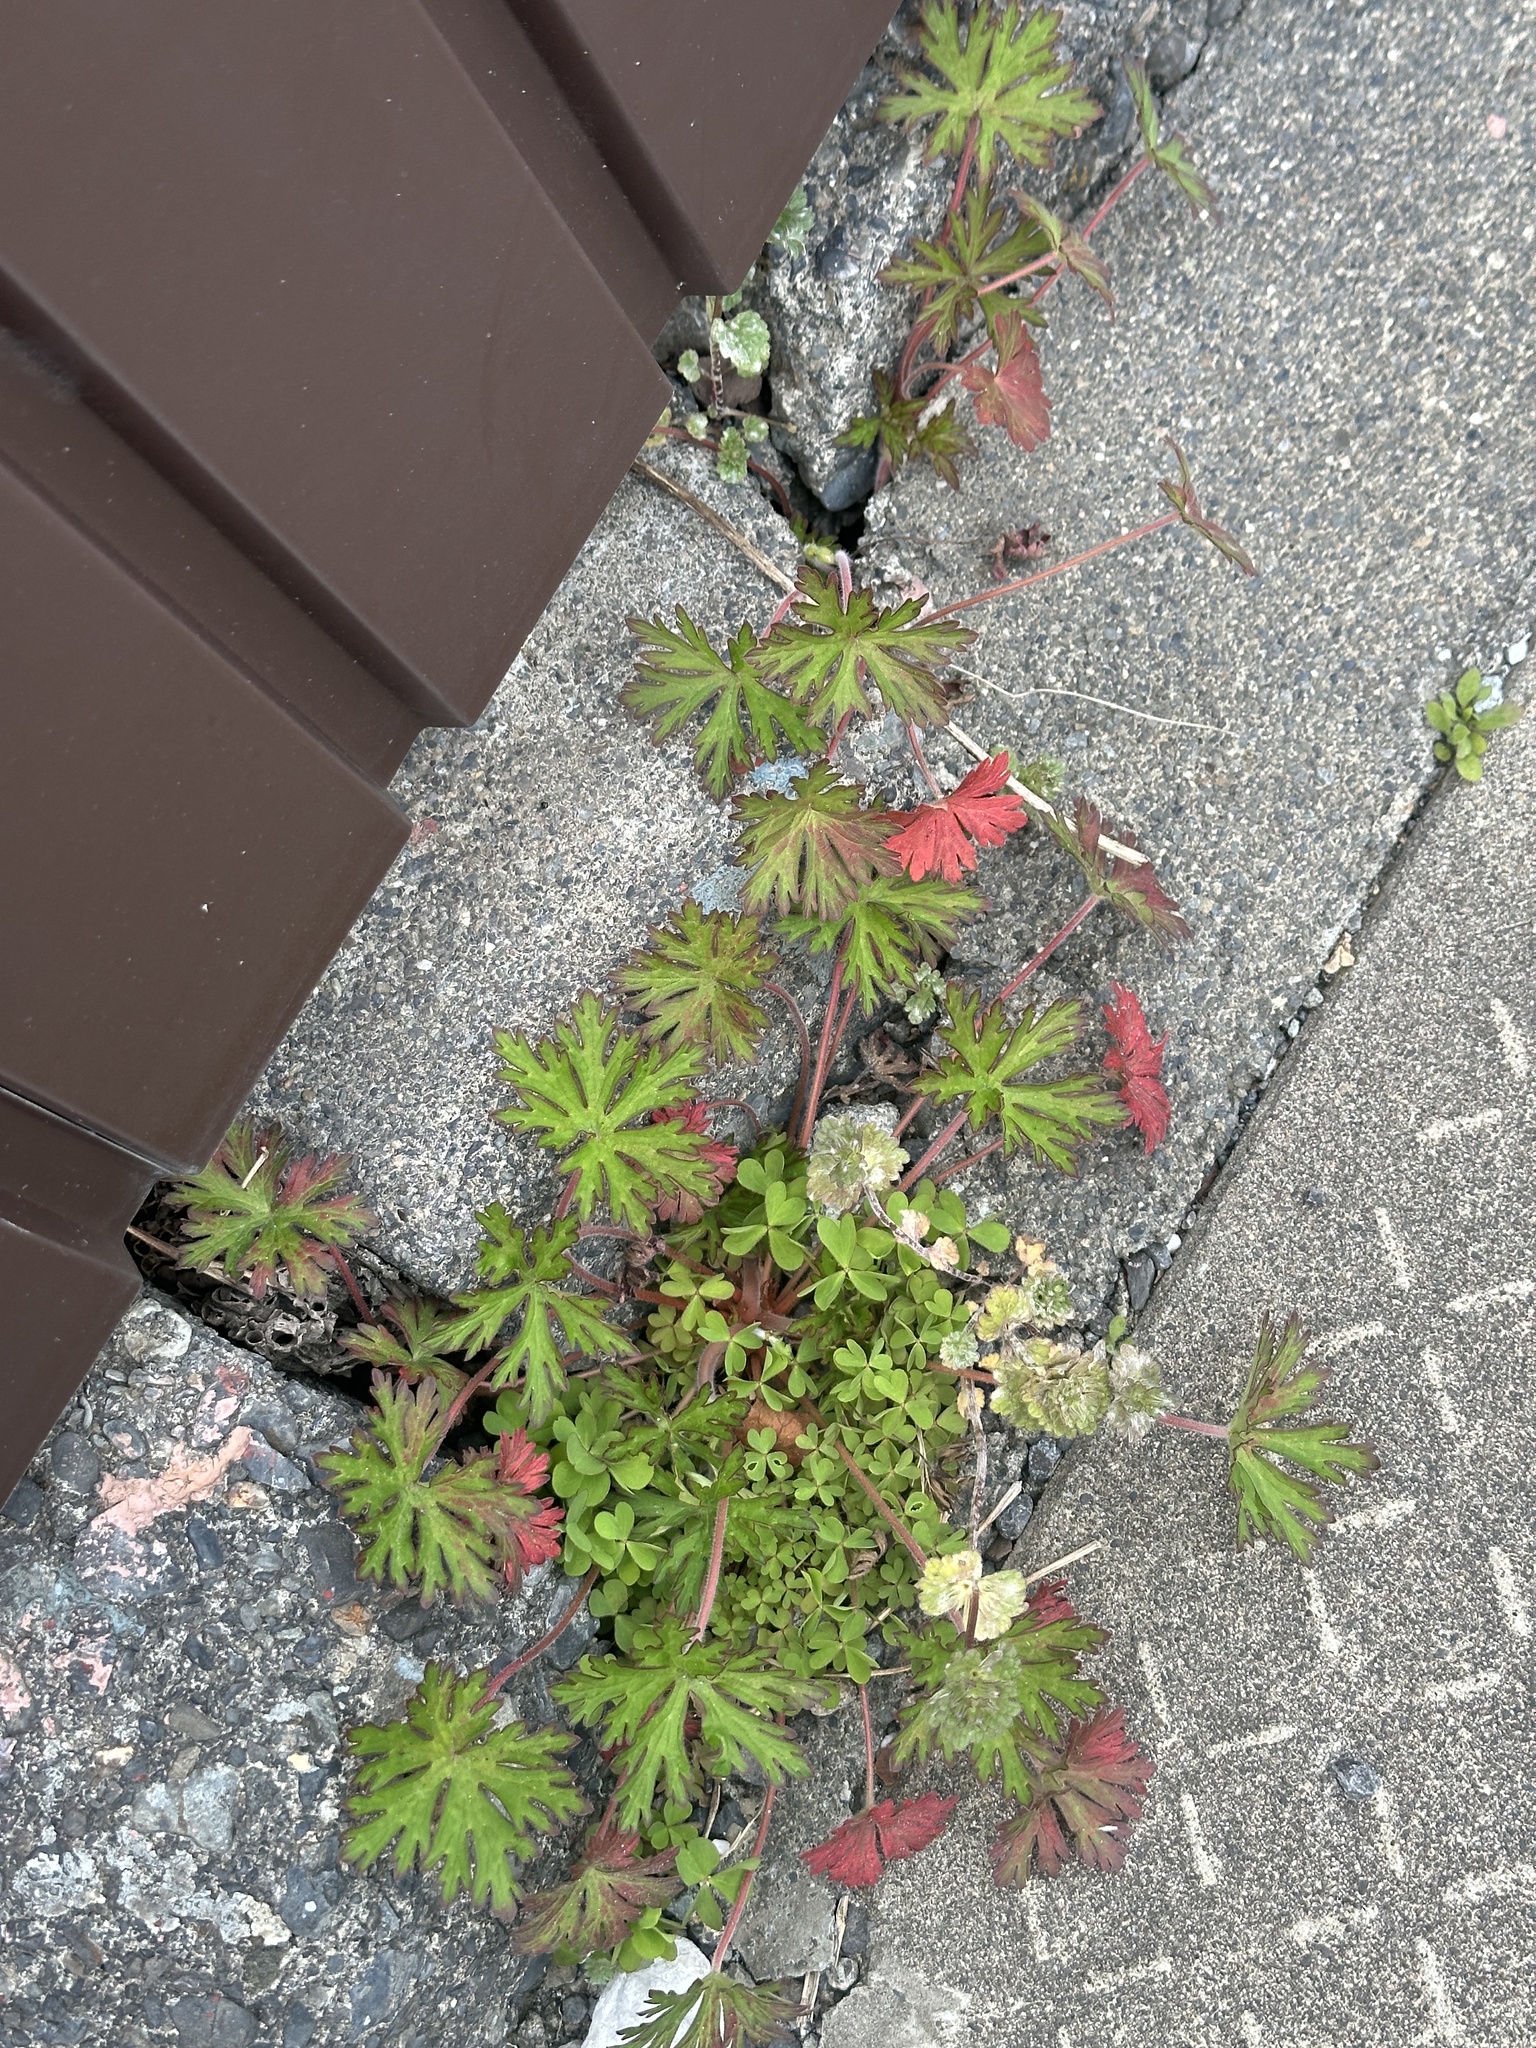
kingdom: Plantae
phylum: Tracheophyta
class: Magnoliopsida
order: Geraniales
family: Geraniaceae
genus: Geranium
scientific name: Geranium carolinianum
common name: Carolina crane's-bill
